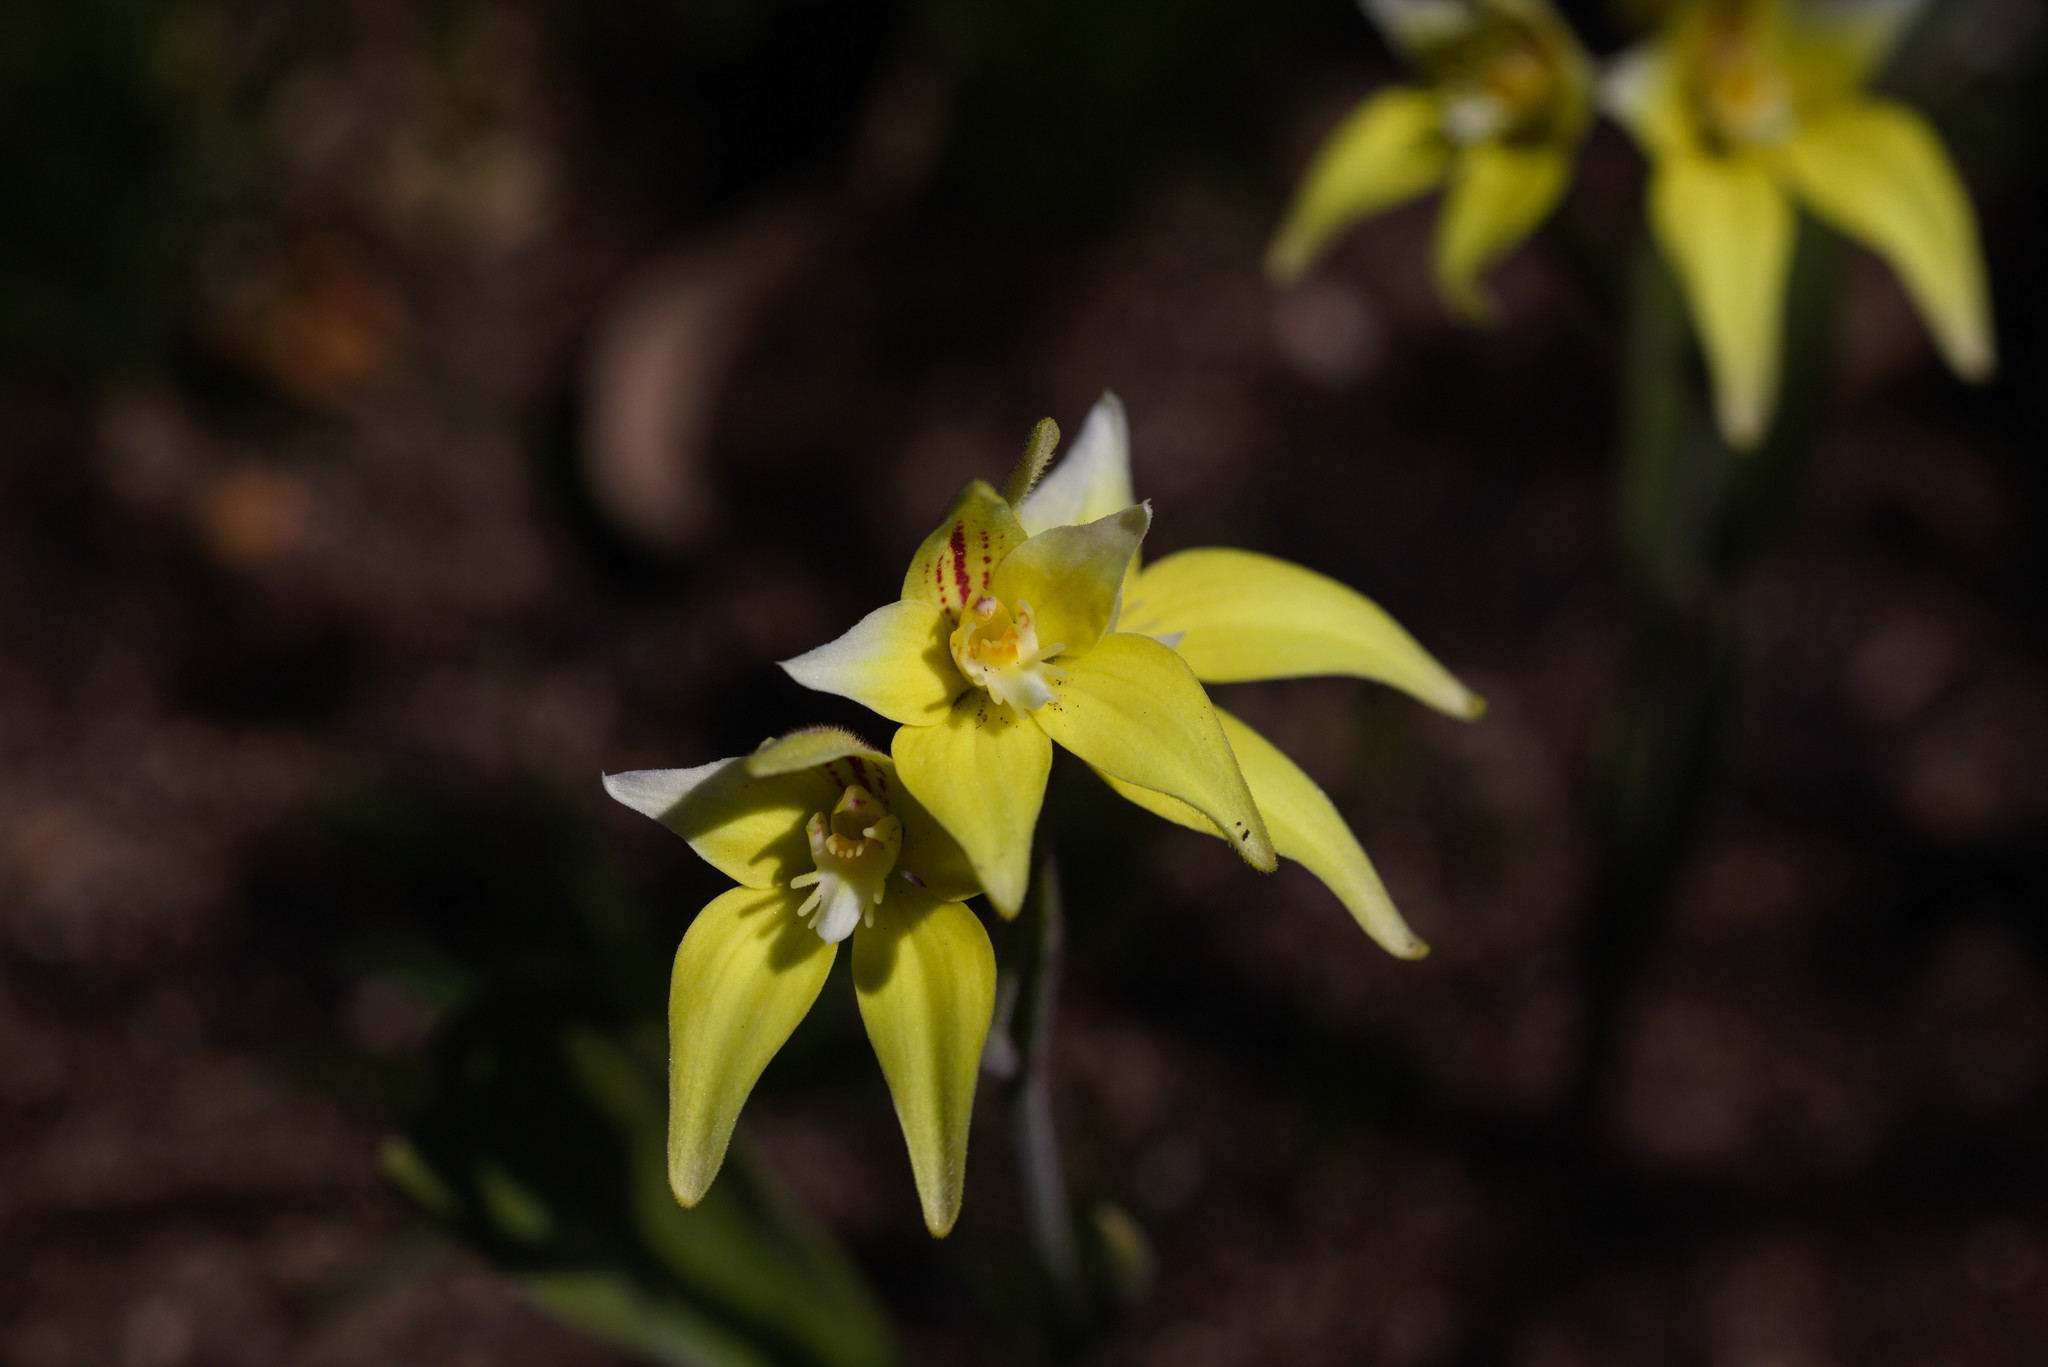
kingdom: Plantae
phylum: Tracheophyta
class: Liliopsida
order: Asparagales
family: Orchidaceae
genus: Caladenia
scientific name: Caladenia flava
